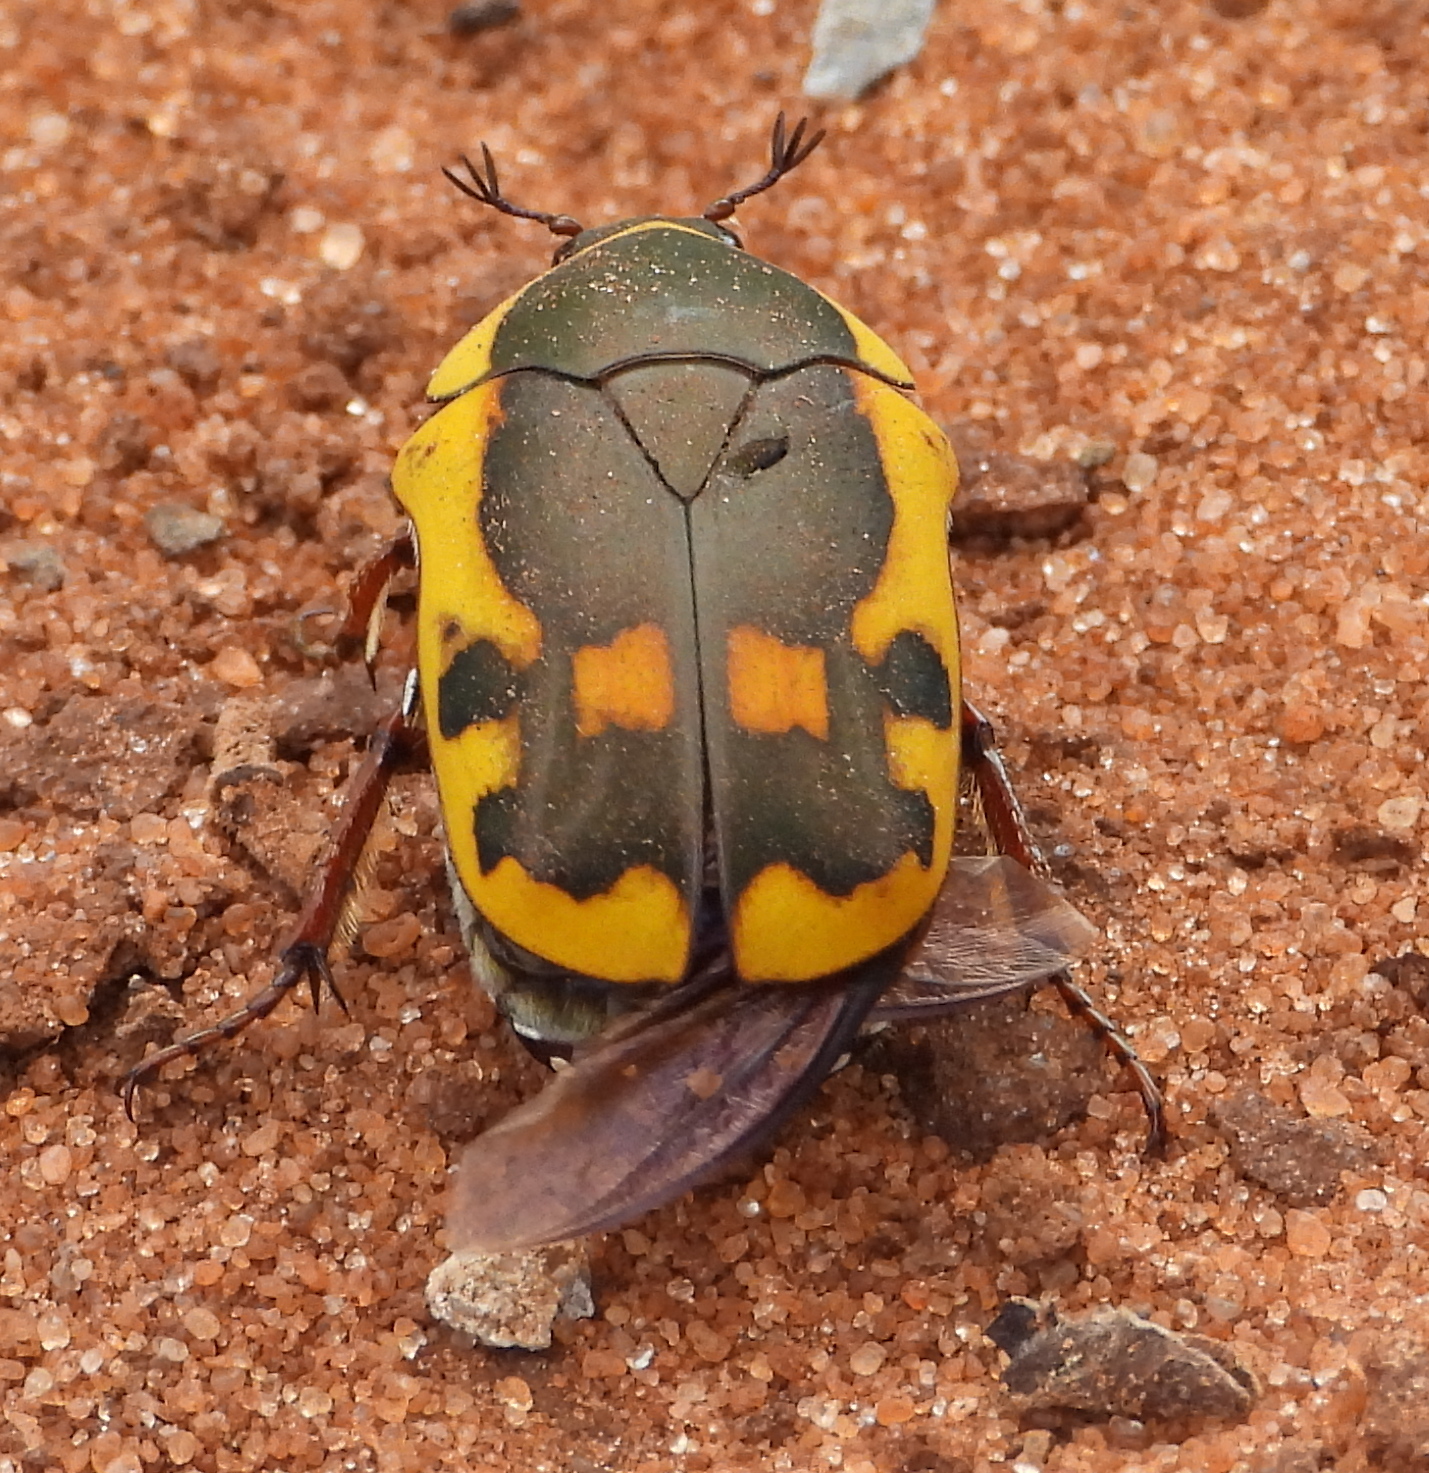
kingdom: Animalia
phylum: Arthropoda
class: Insecta
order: Coleoptera
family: Scarabaeidae
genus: Marmylida
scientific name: Marmylida impressa
